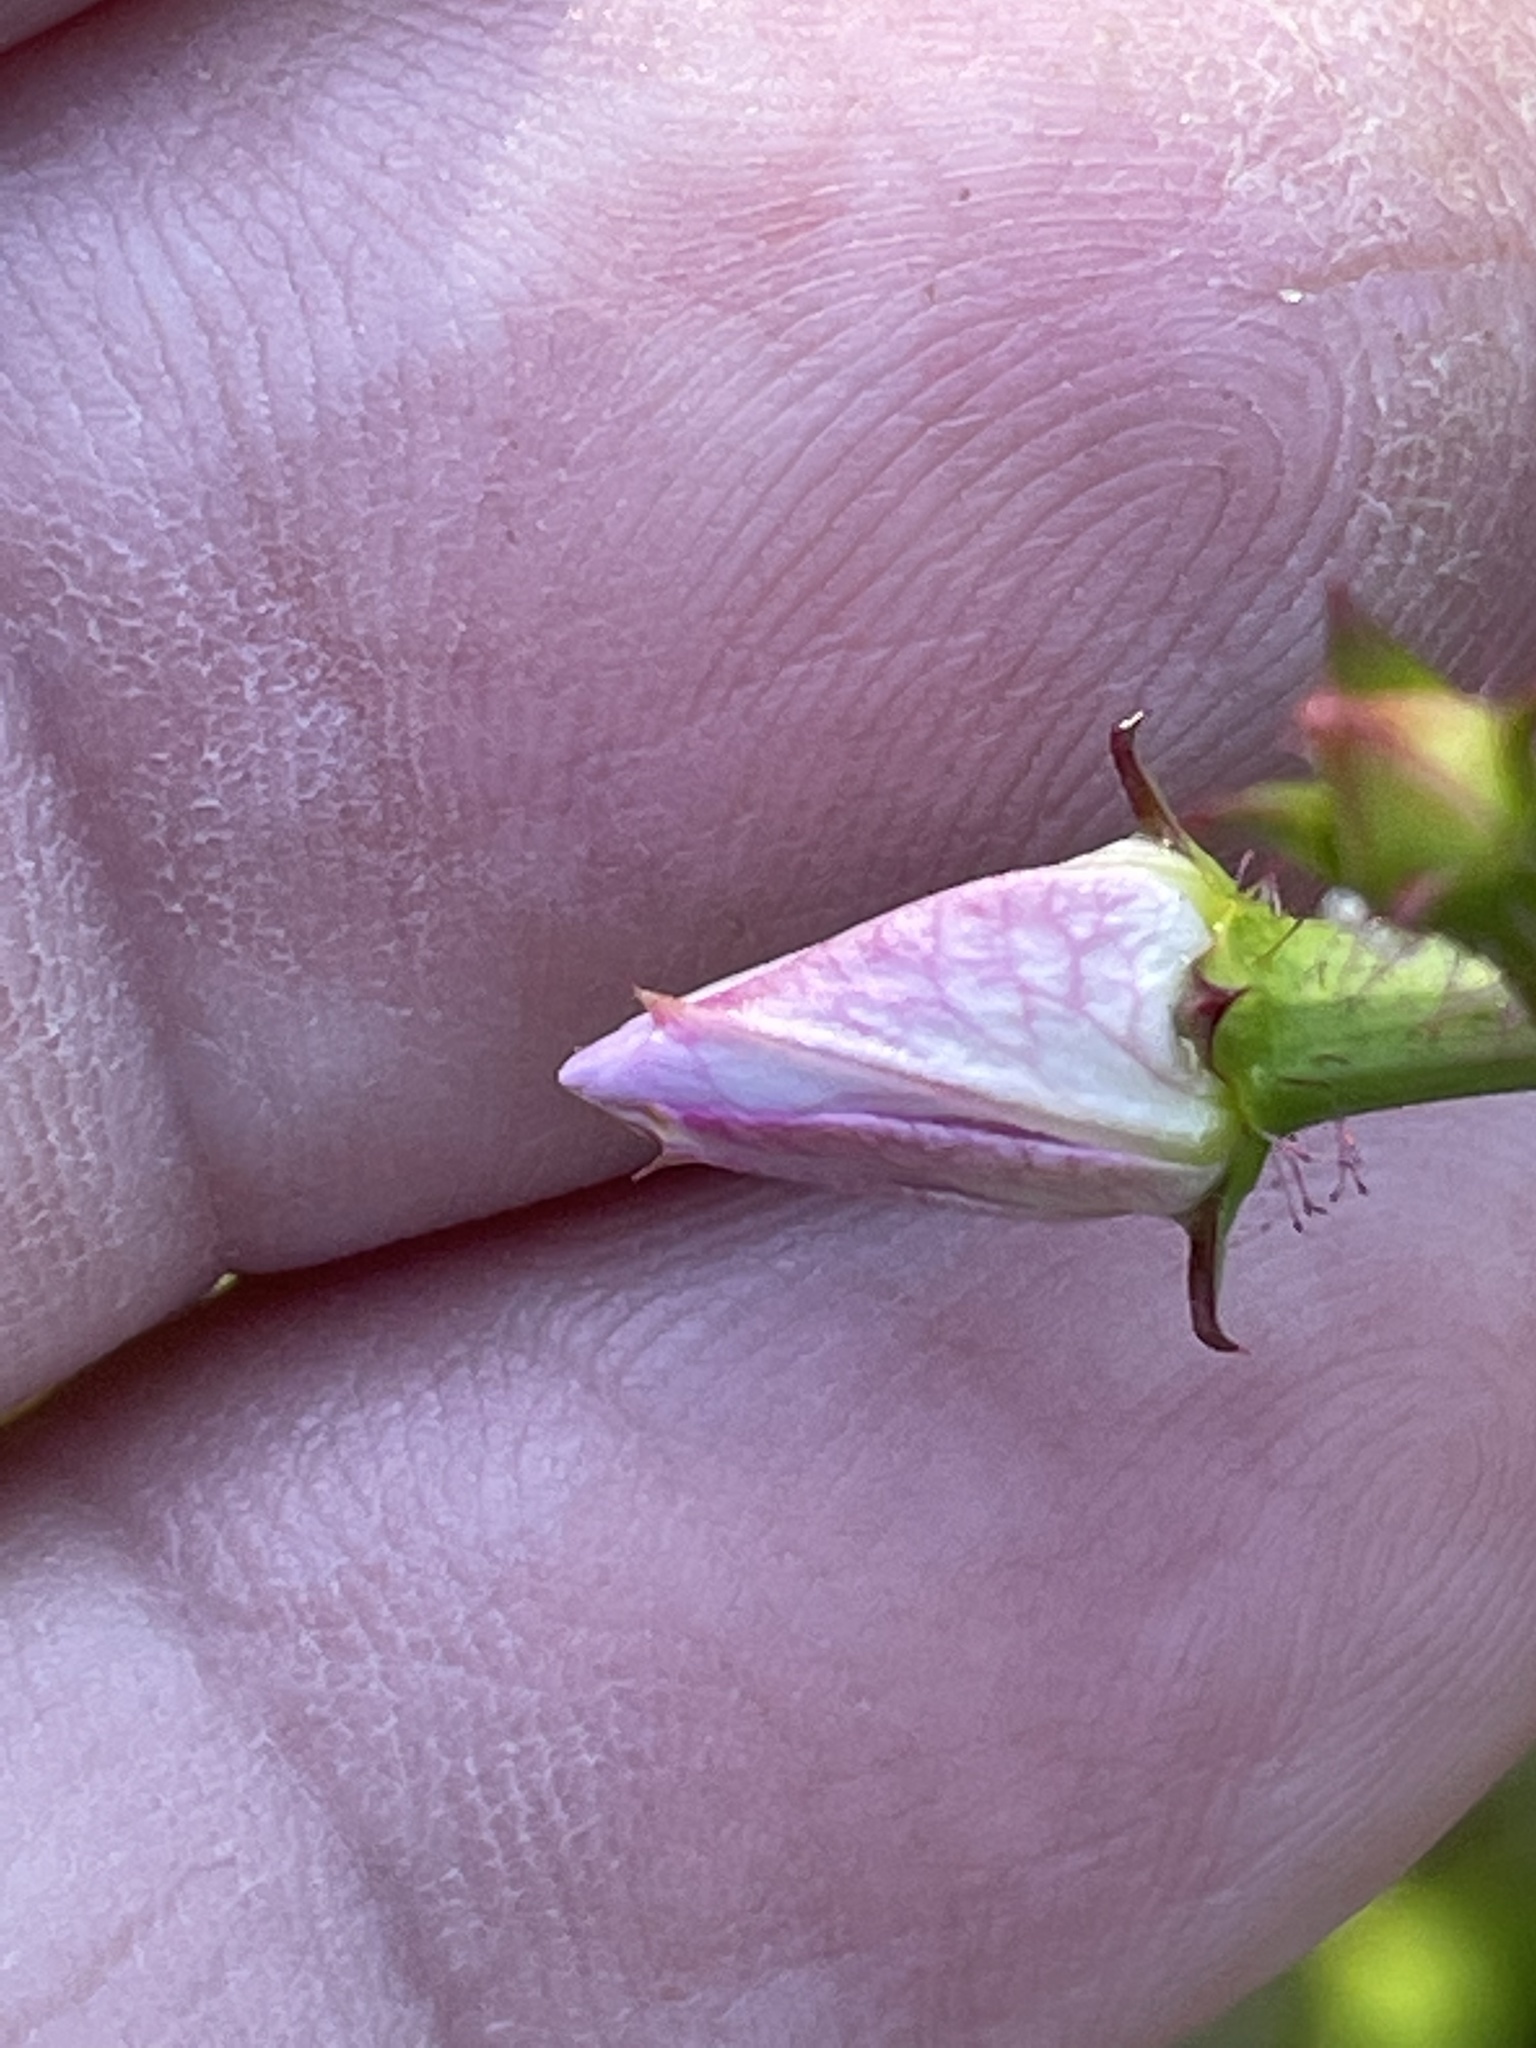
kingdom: Plantae
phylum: Tracheophyta
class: Magnoliopsida
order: Myrtales
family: Melastomataceae
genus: Rhexia
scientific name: Rhexia mariana
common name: Dull meadow-pitcher
